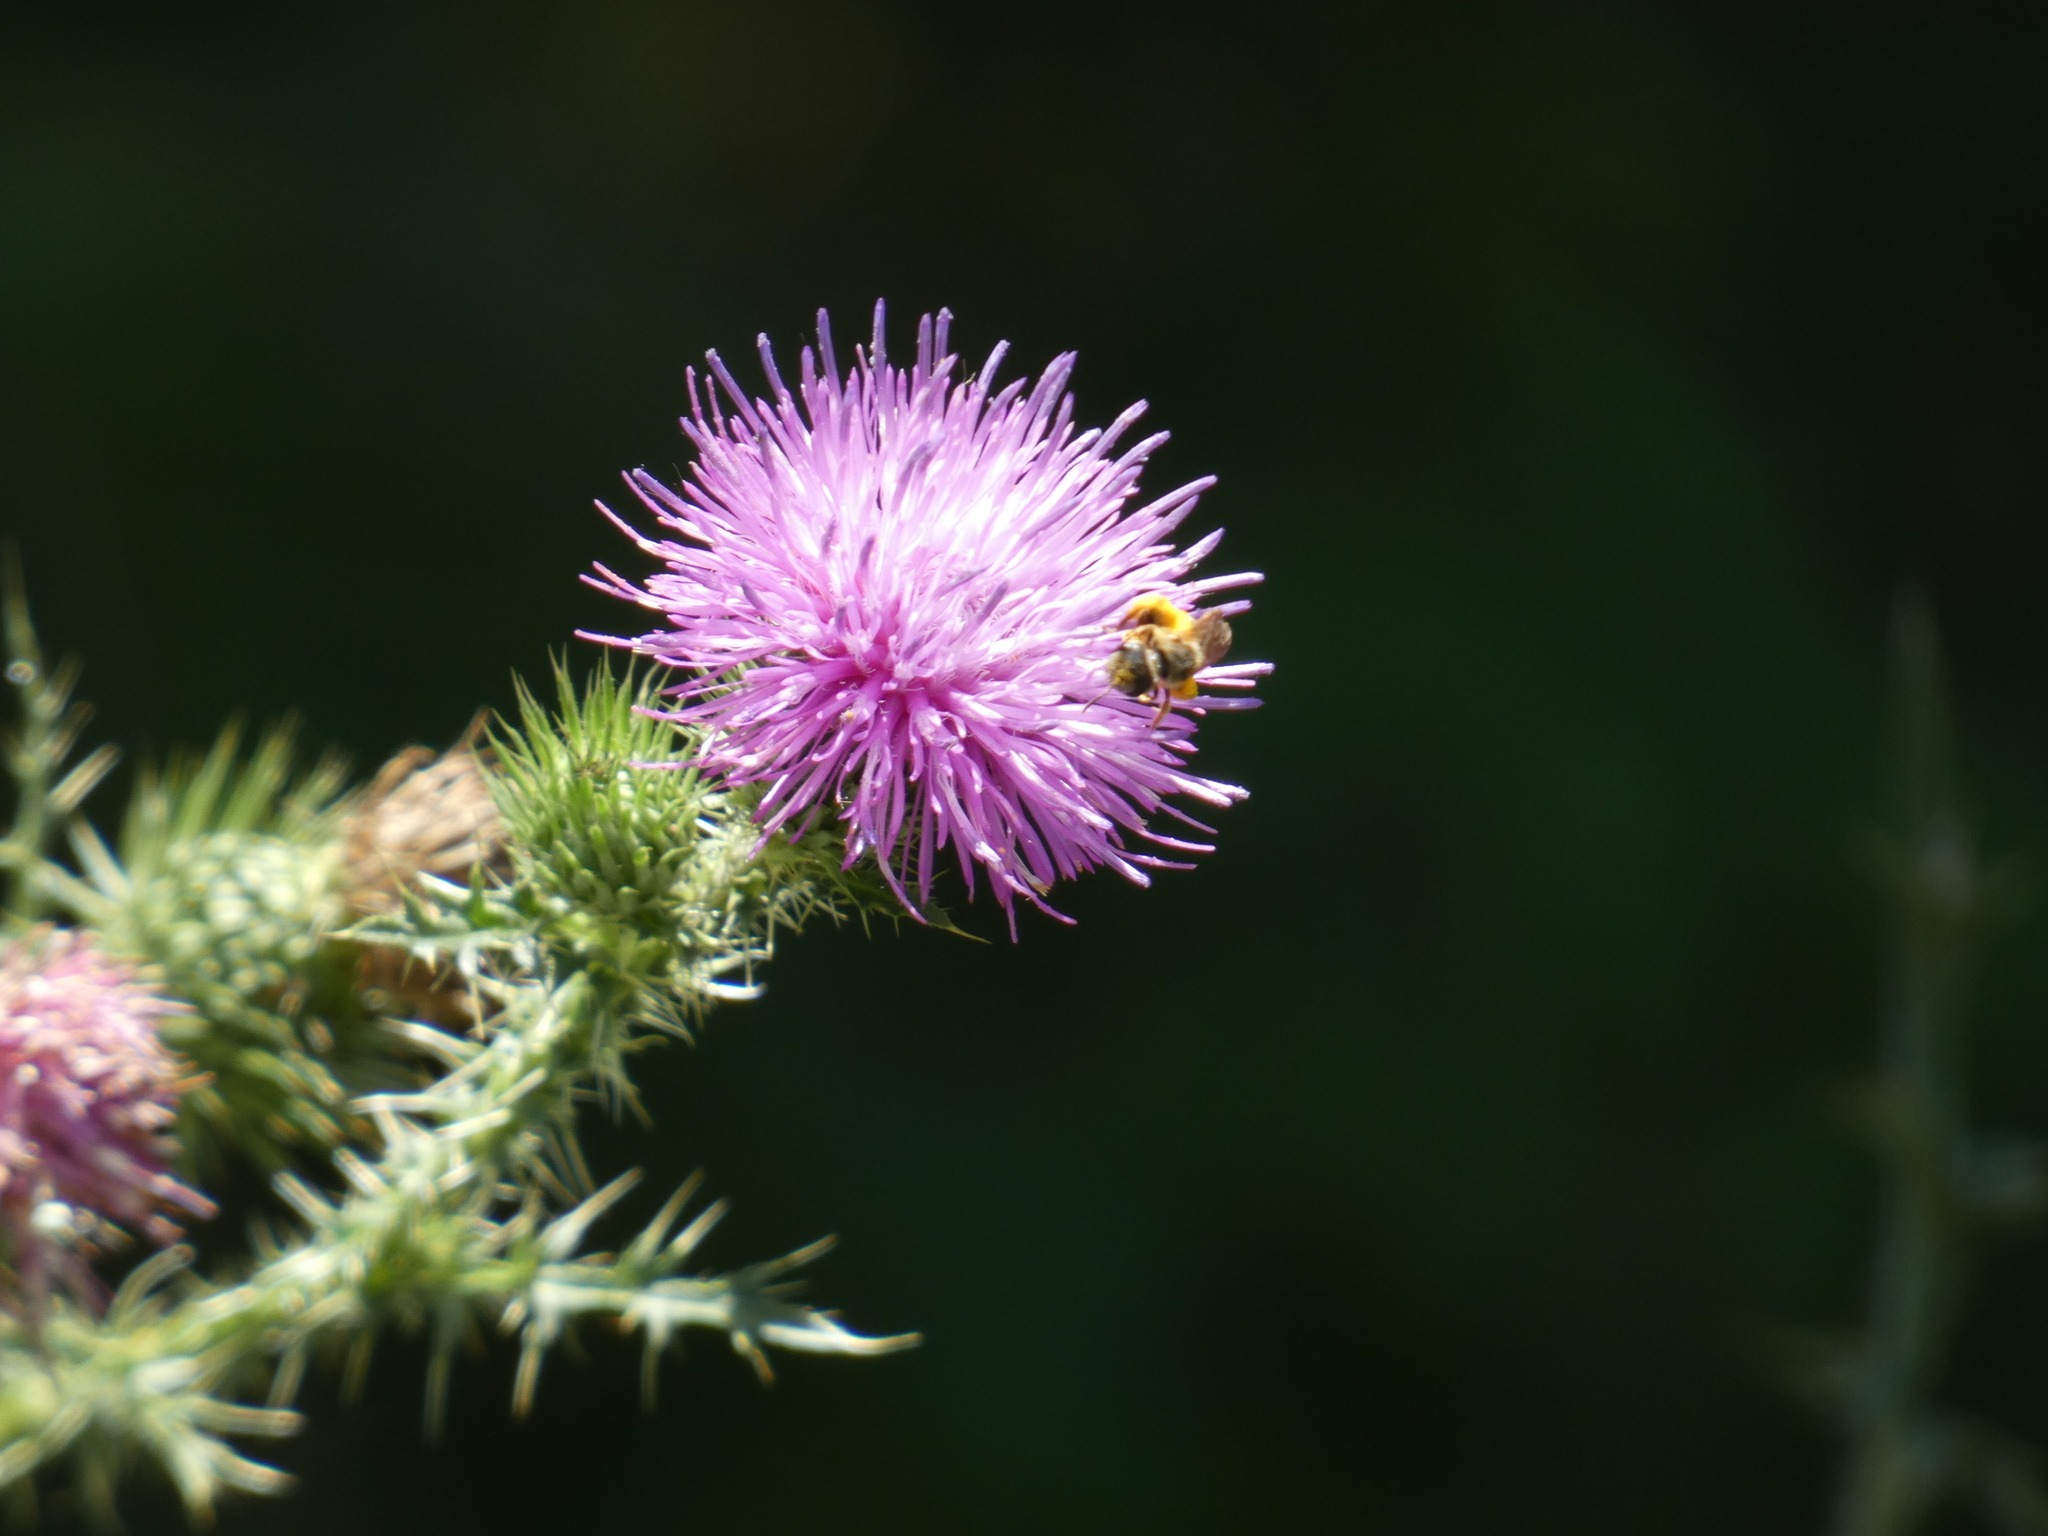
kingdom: Animalia
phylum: Arthropoda
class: Insecta
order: Hymenoptera
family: Halictidae
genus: Halictus
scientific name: Halictus ligatus
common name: Ligated furrow bee
